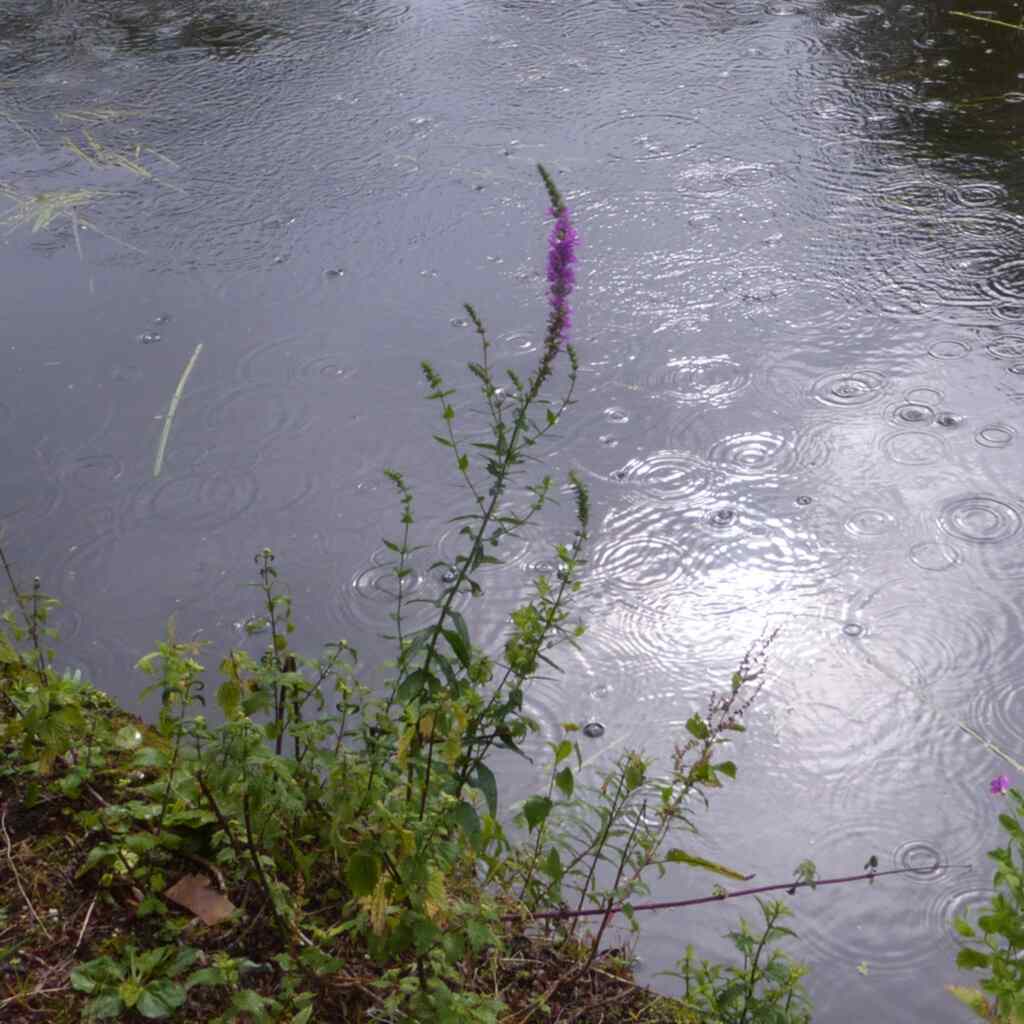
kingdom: Plantae
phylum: Tracheophyta
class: Magnoliopsida
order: Myrtales
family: Lythraceae
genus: Lythrum
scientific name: Lythrum salicaria
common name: Purple loosestrife
